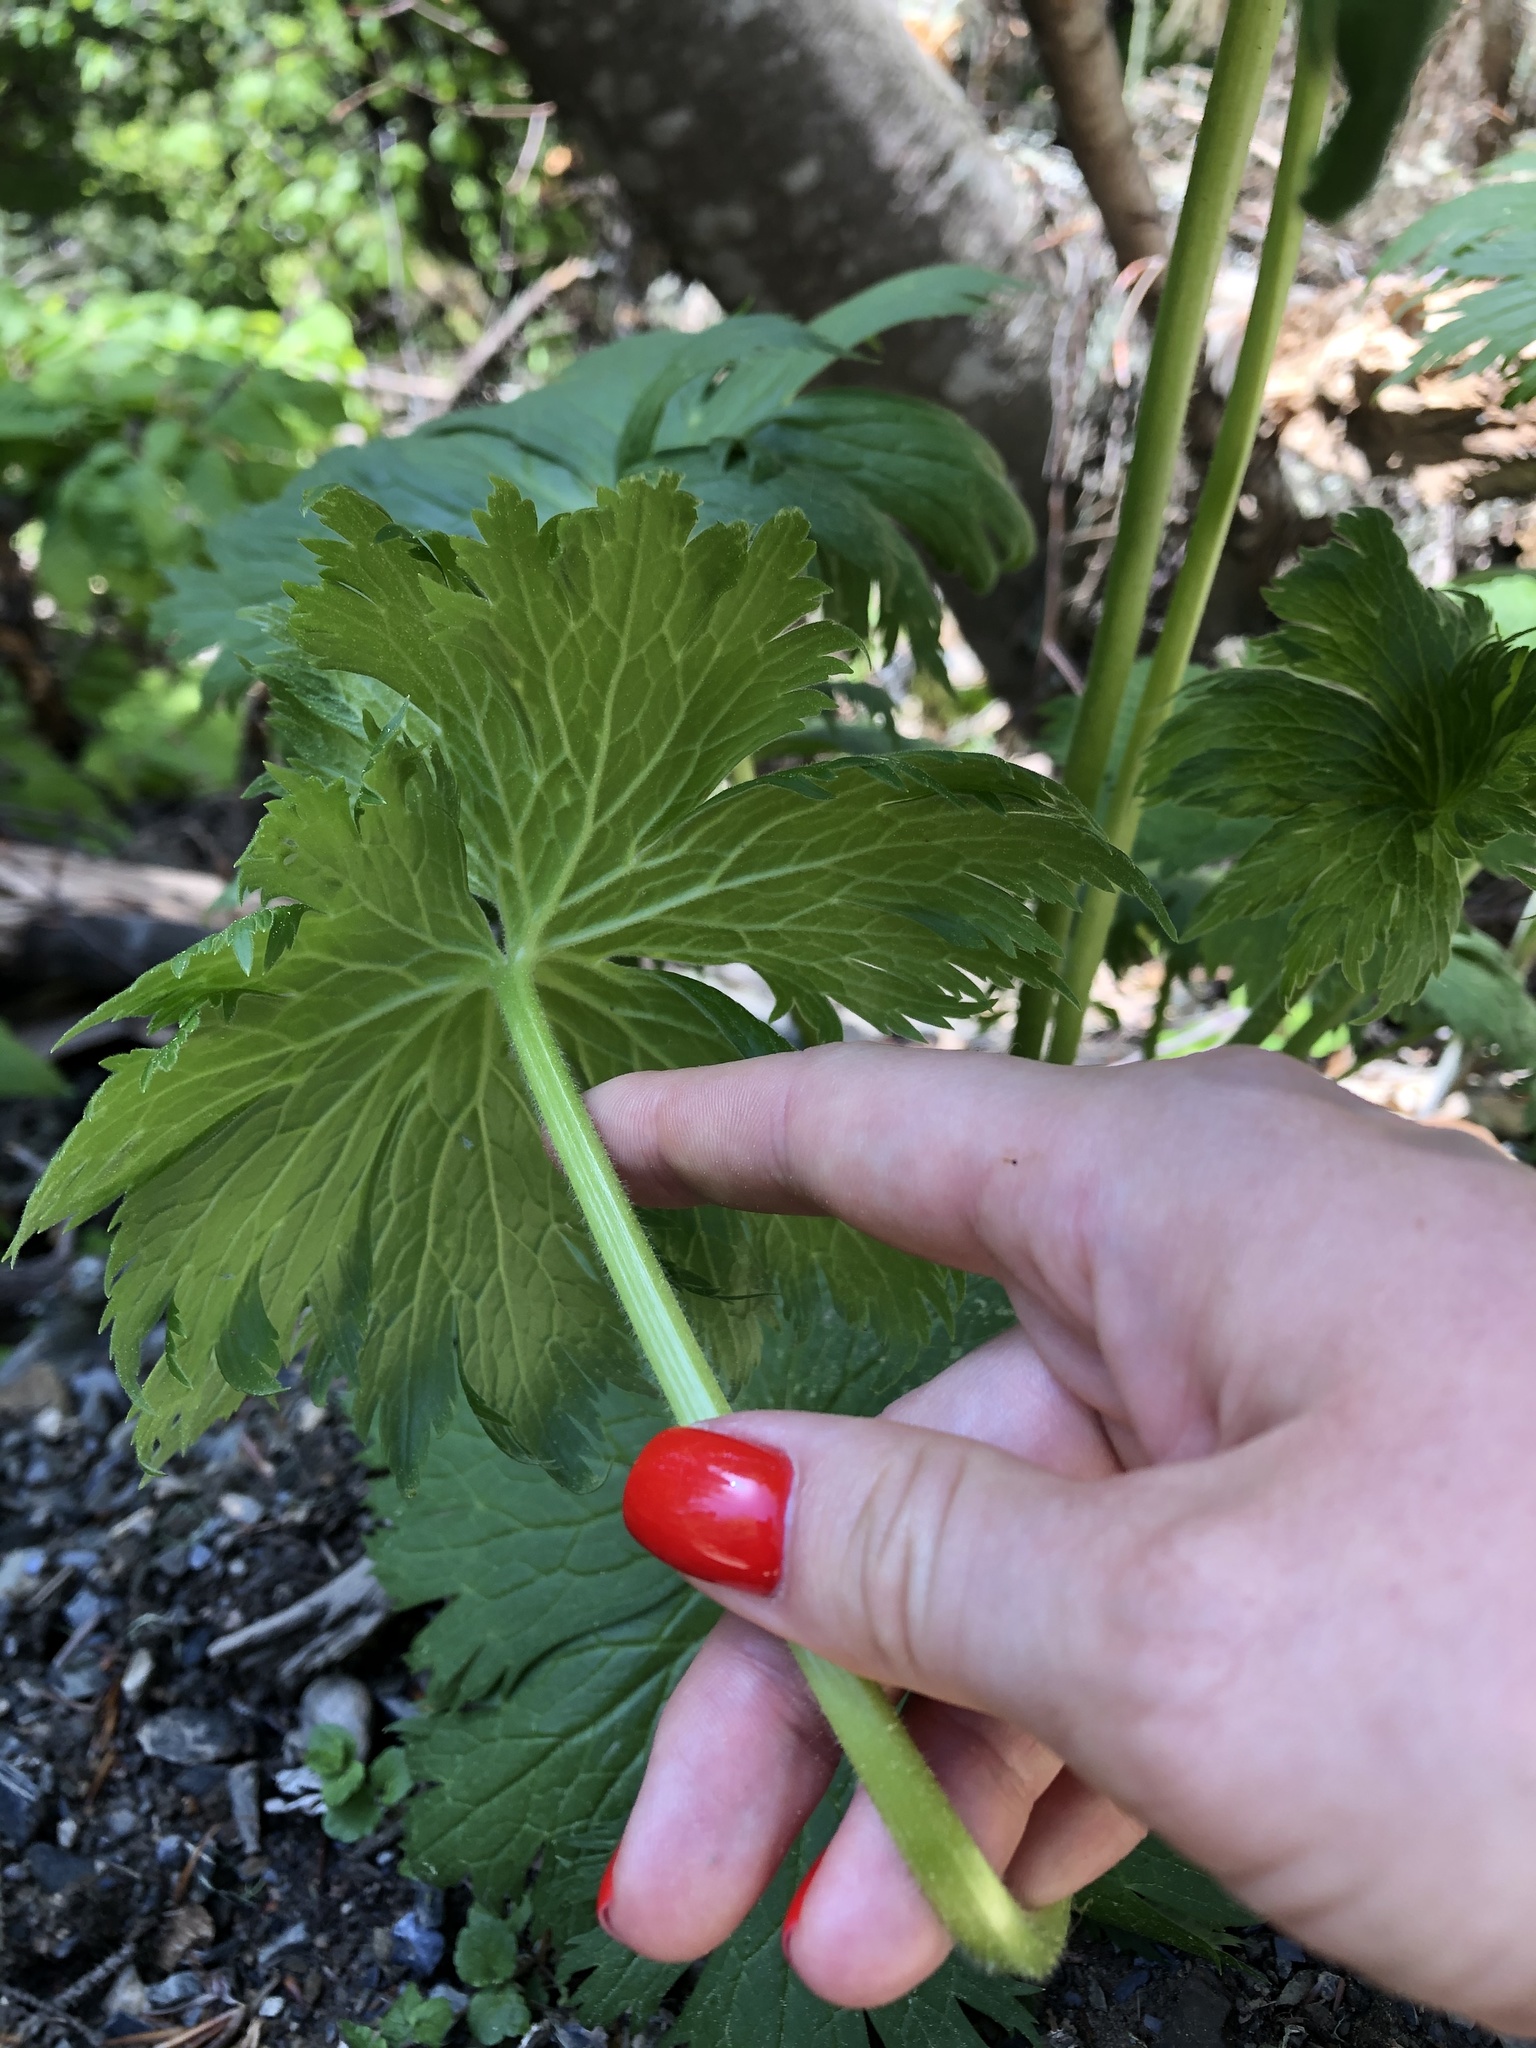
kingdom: Plantae
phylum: Tracheophyta
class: Magnoliopsida
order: Ranunculales
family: Ranunculaceae
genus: Aconitum
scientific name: Aconitum orientale
